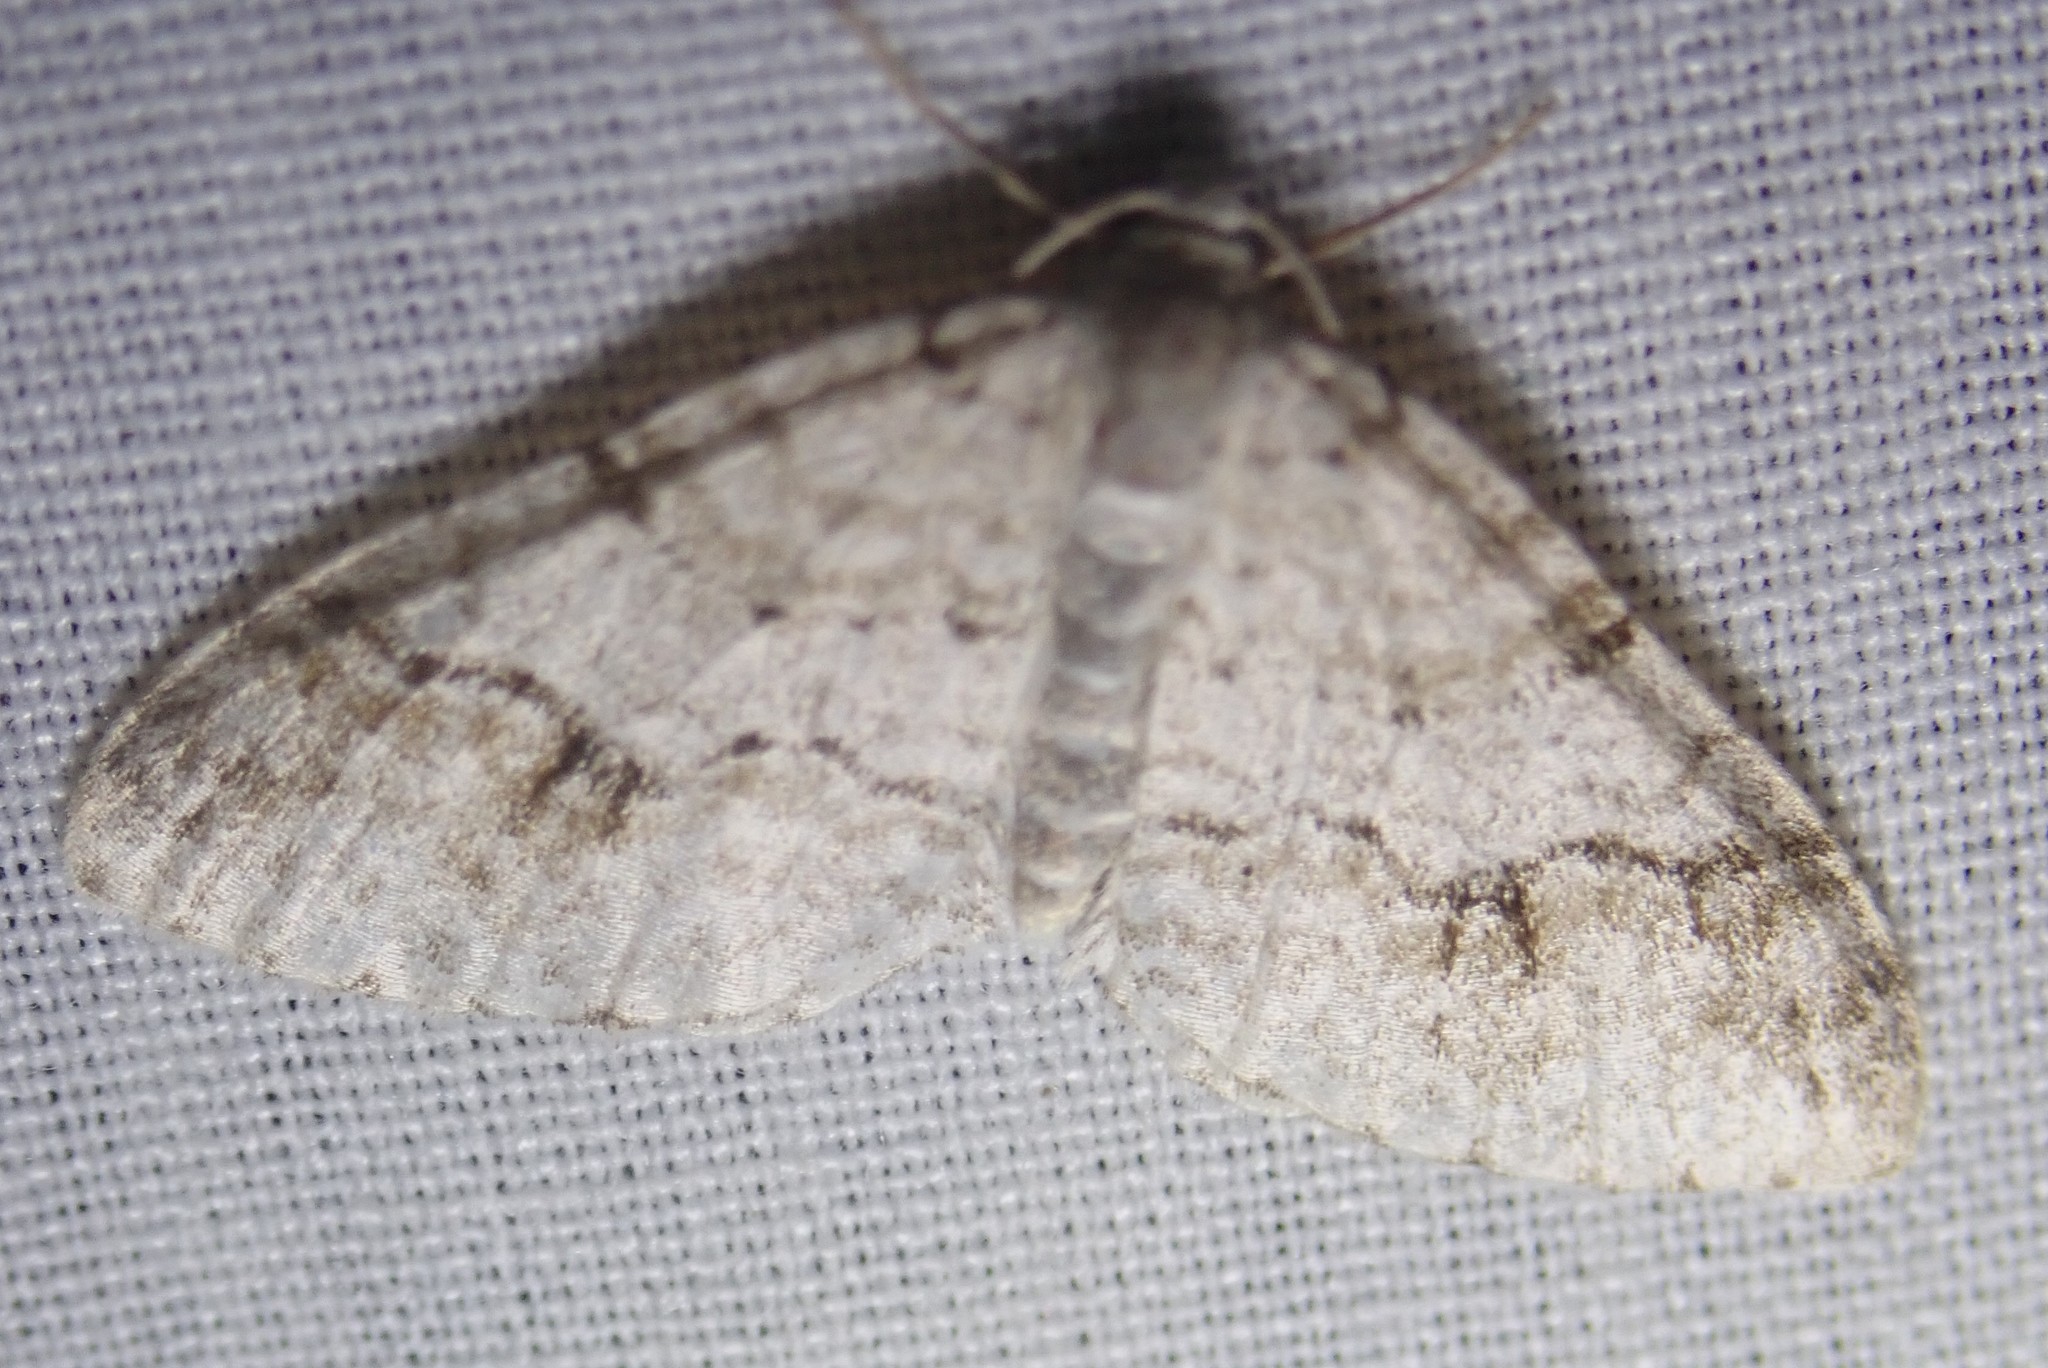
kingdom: Animalia
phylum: Arthropoda
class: Insecta
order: Lepidoptera
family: Geometridae
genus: Venusia
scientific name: Venusia cambrica
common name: Welsh wave
